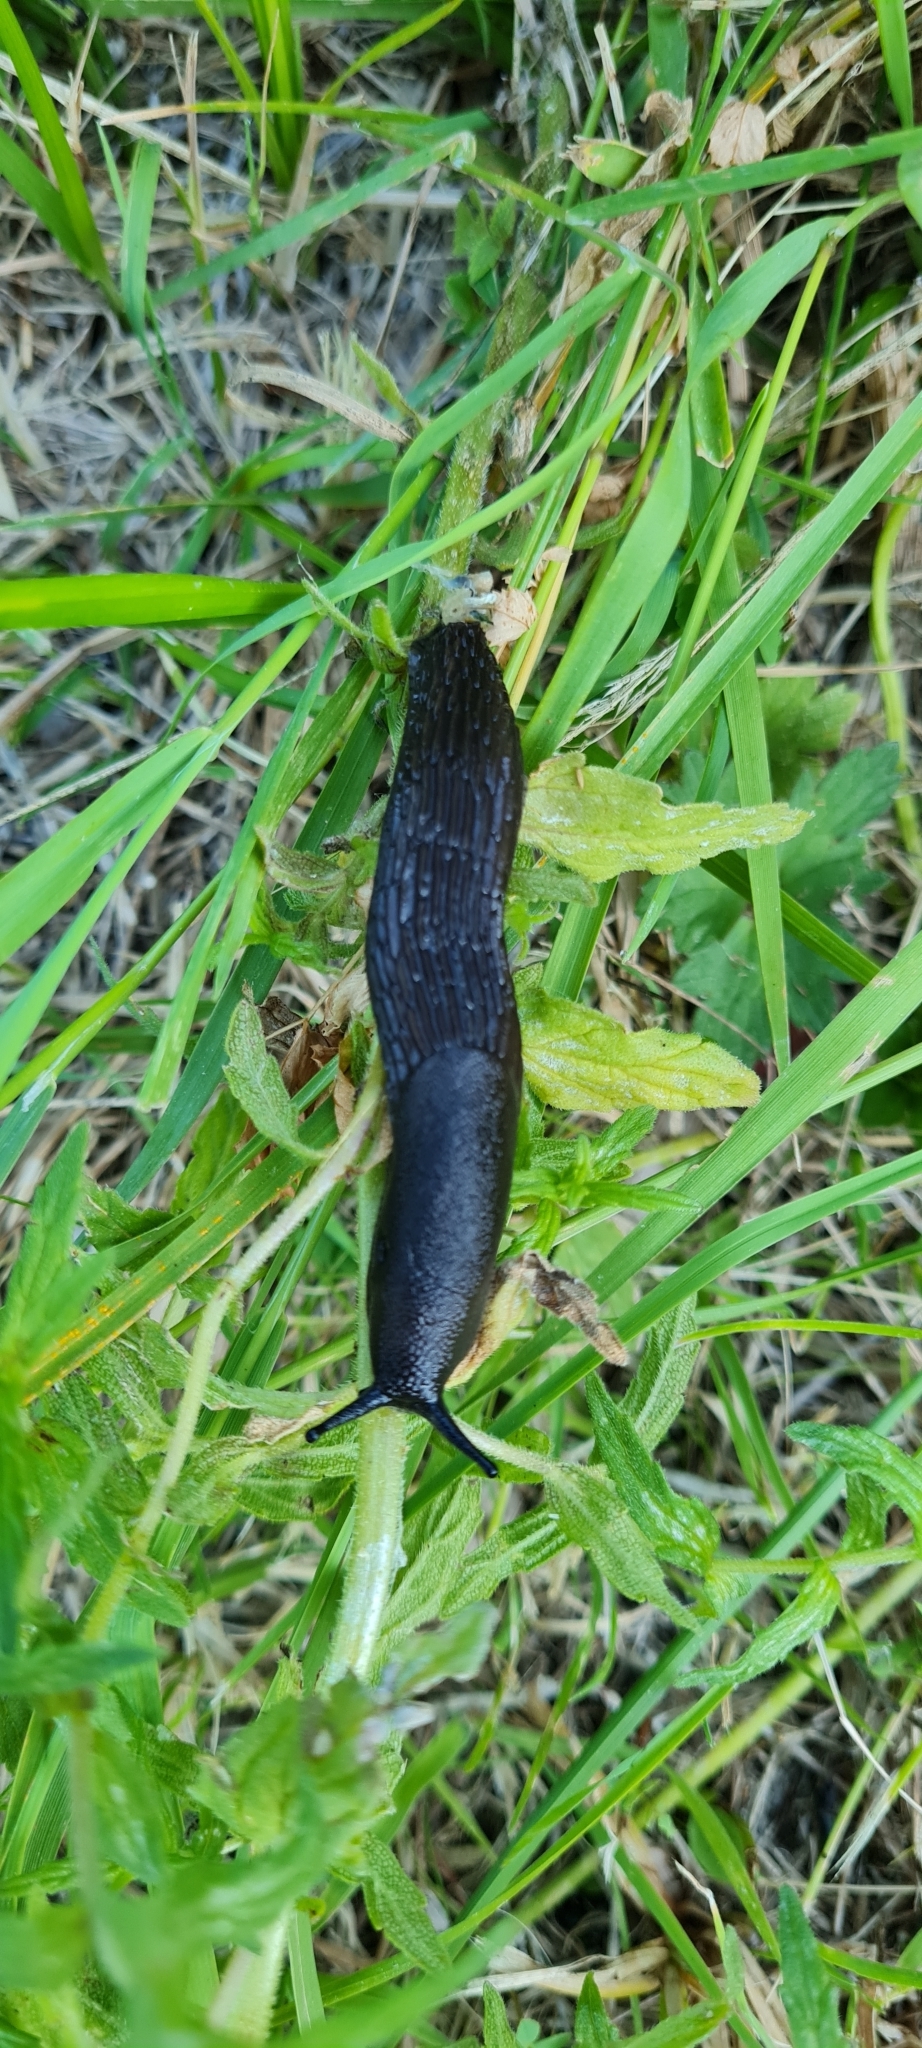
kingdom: Animalia
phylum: Mollusca
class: Gastropoda
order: Stylommatophora
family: Arionidae
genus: Arion
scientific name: Arion ater
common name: Black arion
